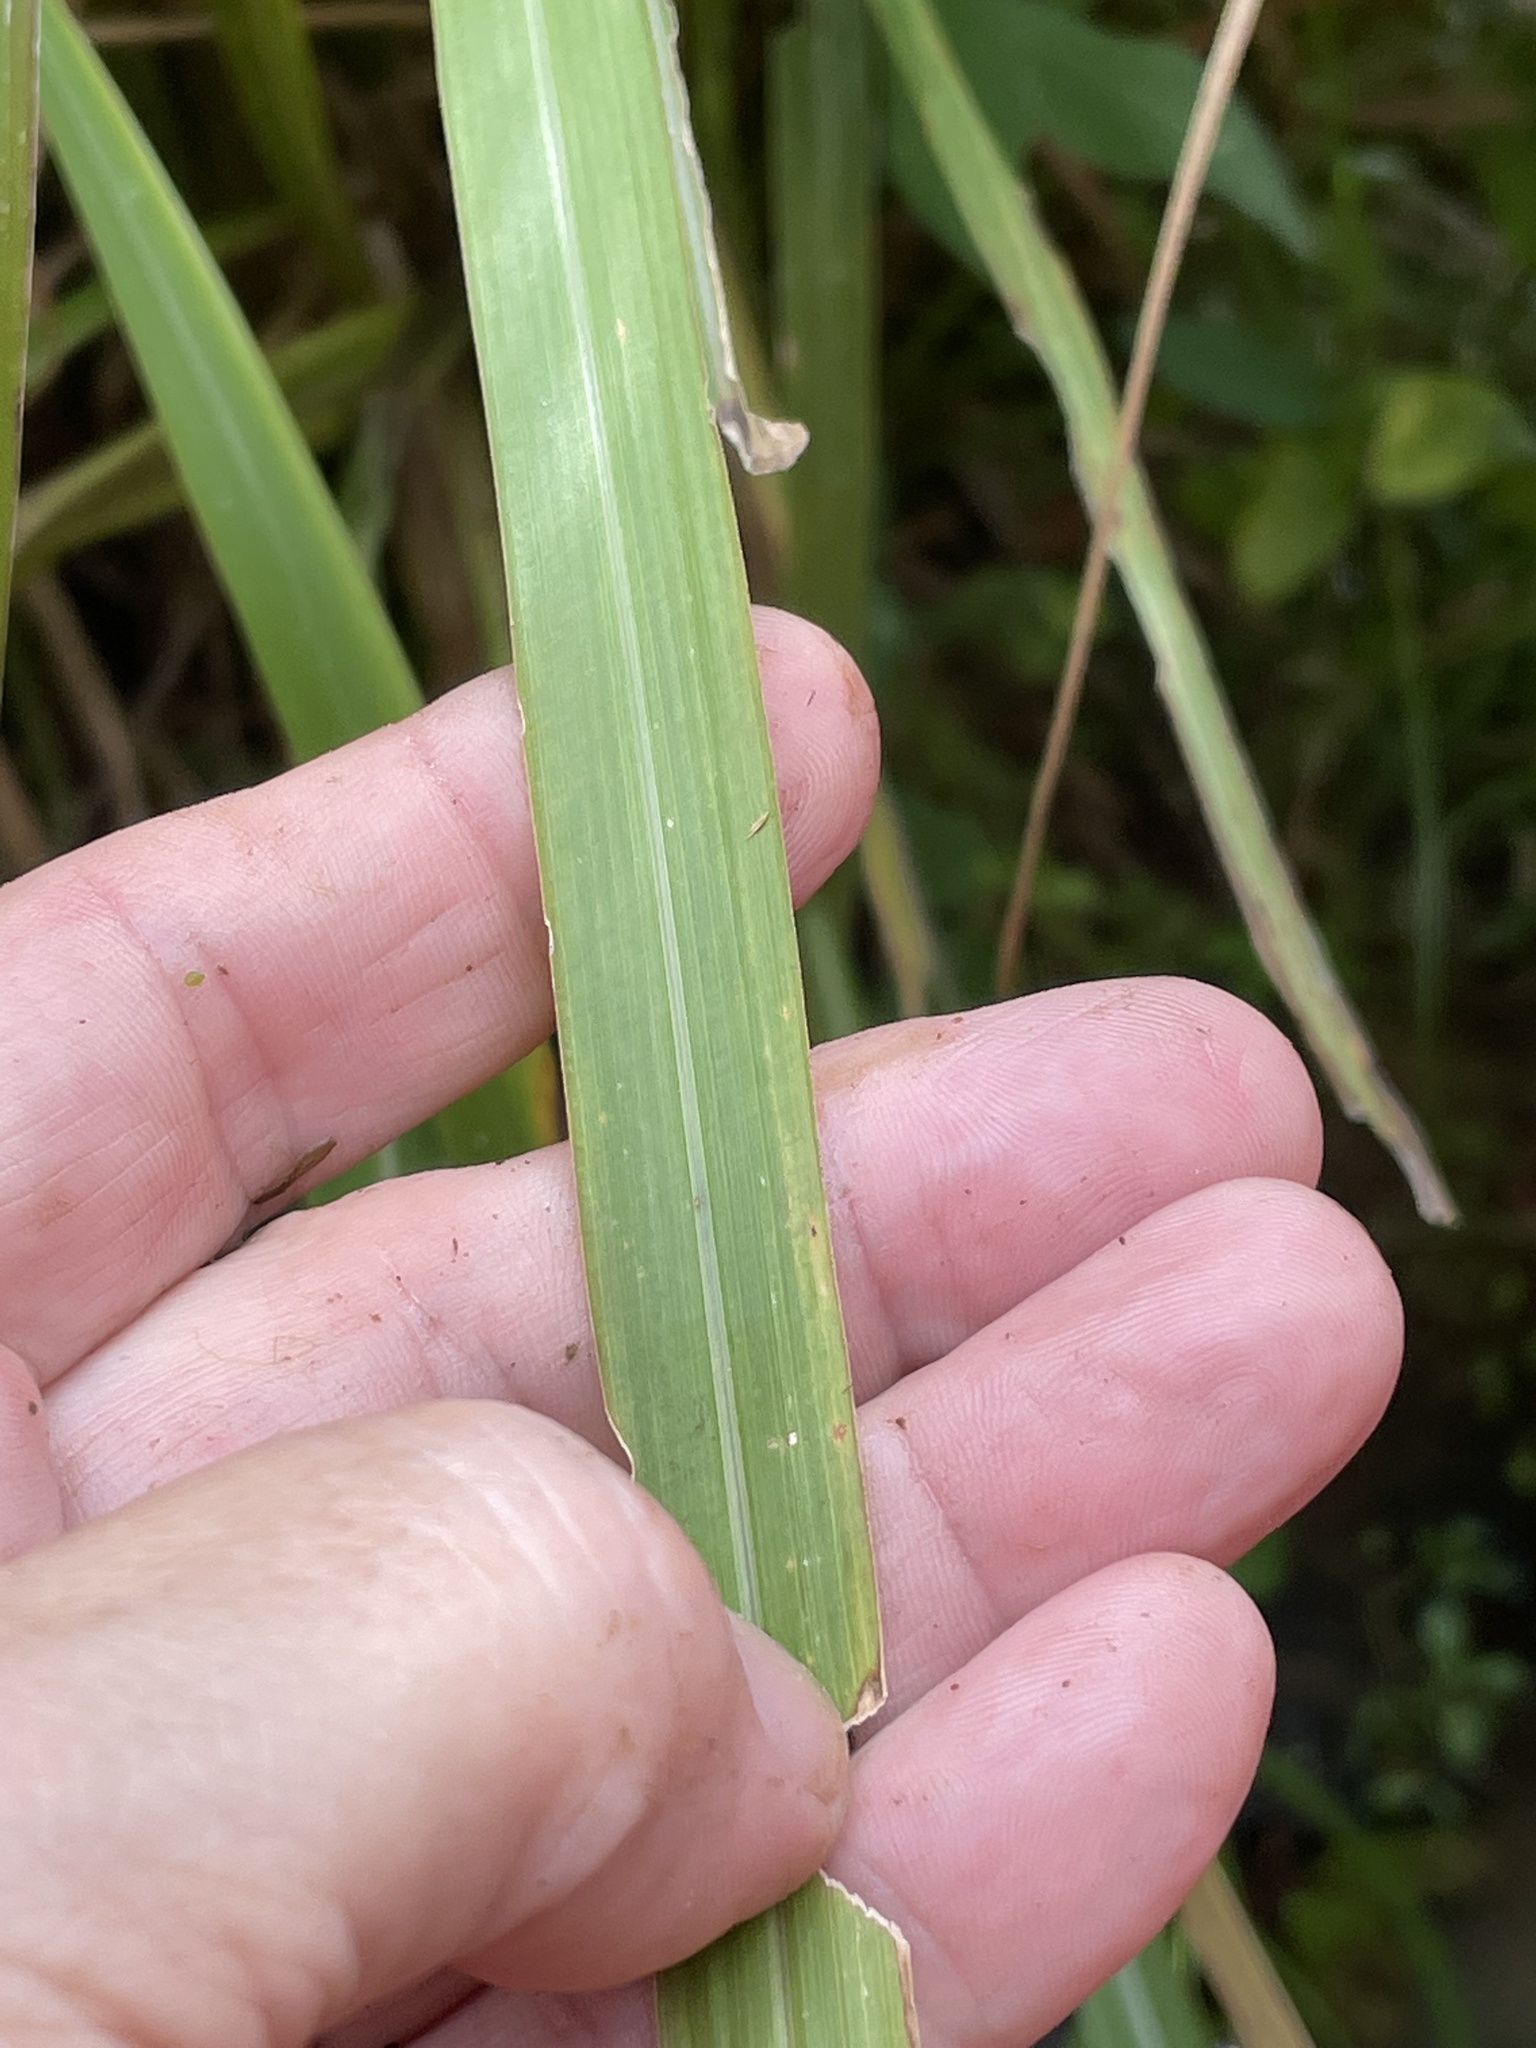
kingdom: Plantae
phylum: Tracheophyta
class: Liliopsida
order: Poales
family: Poaceae
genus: Coleataenia
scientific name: Coleataenia rigidula
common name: Redtop panicgrass
